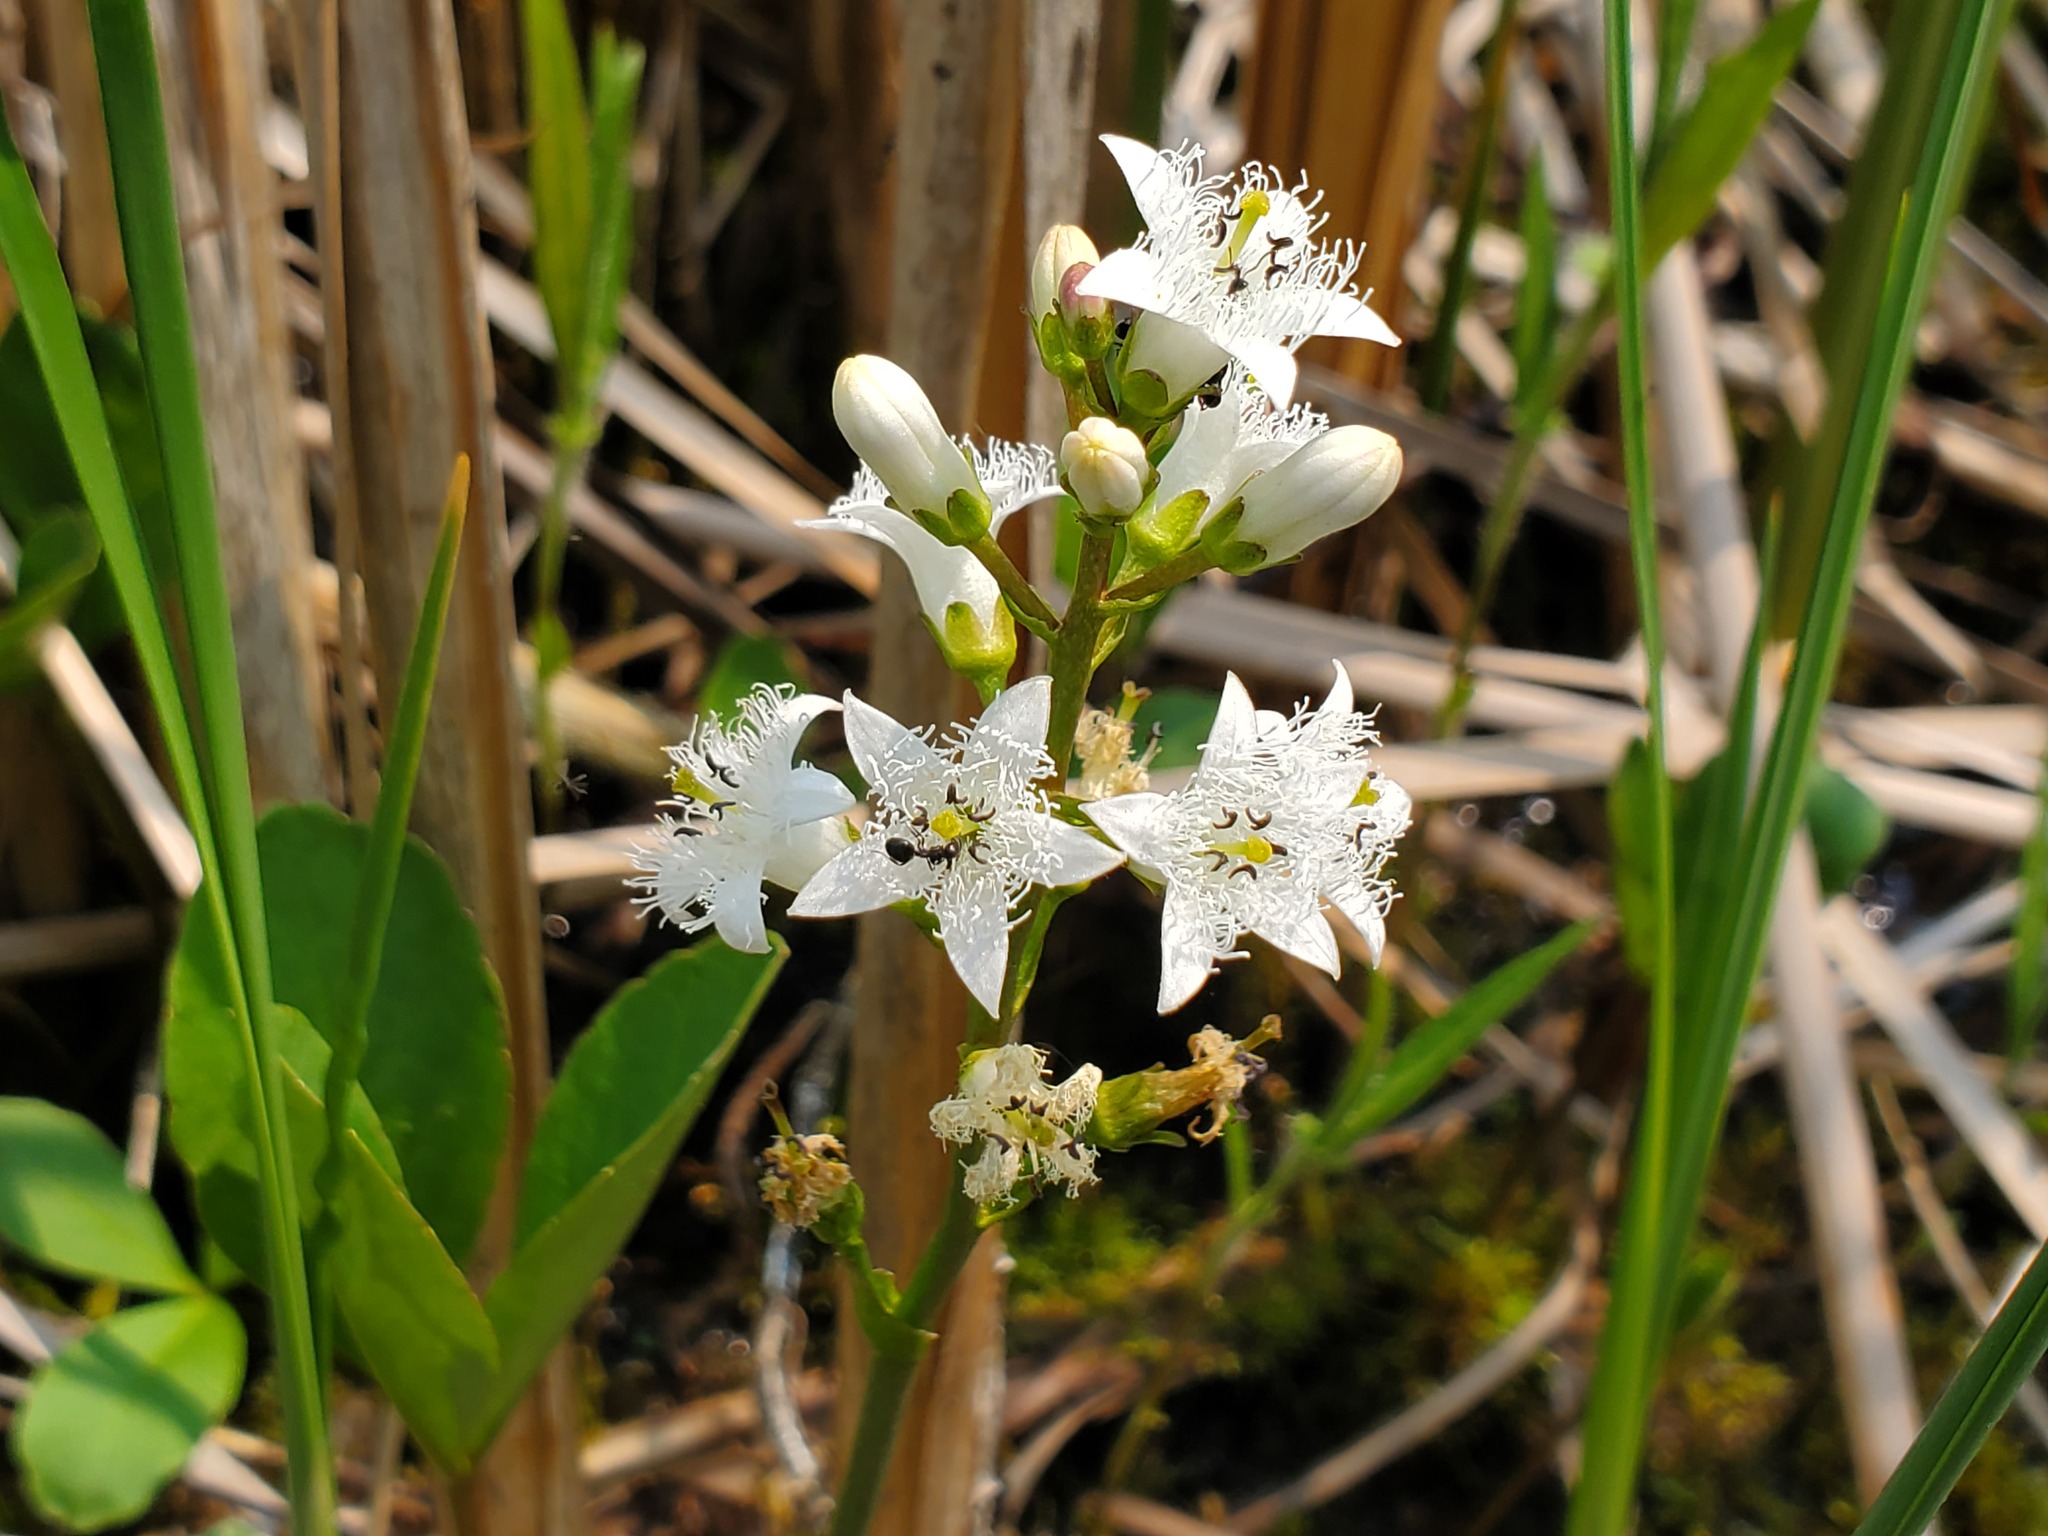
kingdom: Plantae
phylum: Tracheophyta
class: Magnoliopsida
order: Asterales
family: Menyanthaceae
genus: Menyanthes
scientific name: Menyanthes trifoliata
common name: Bogbean
